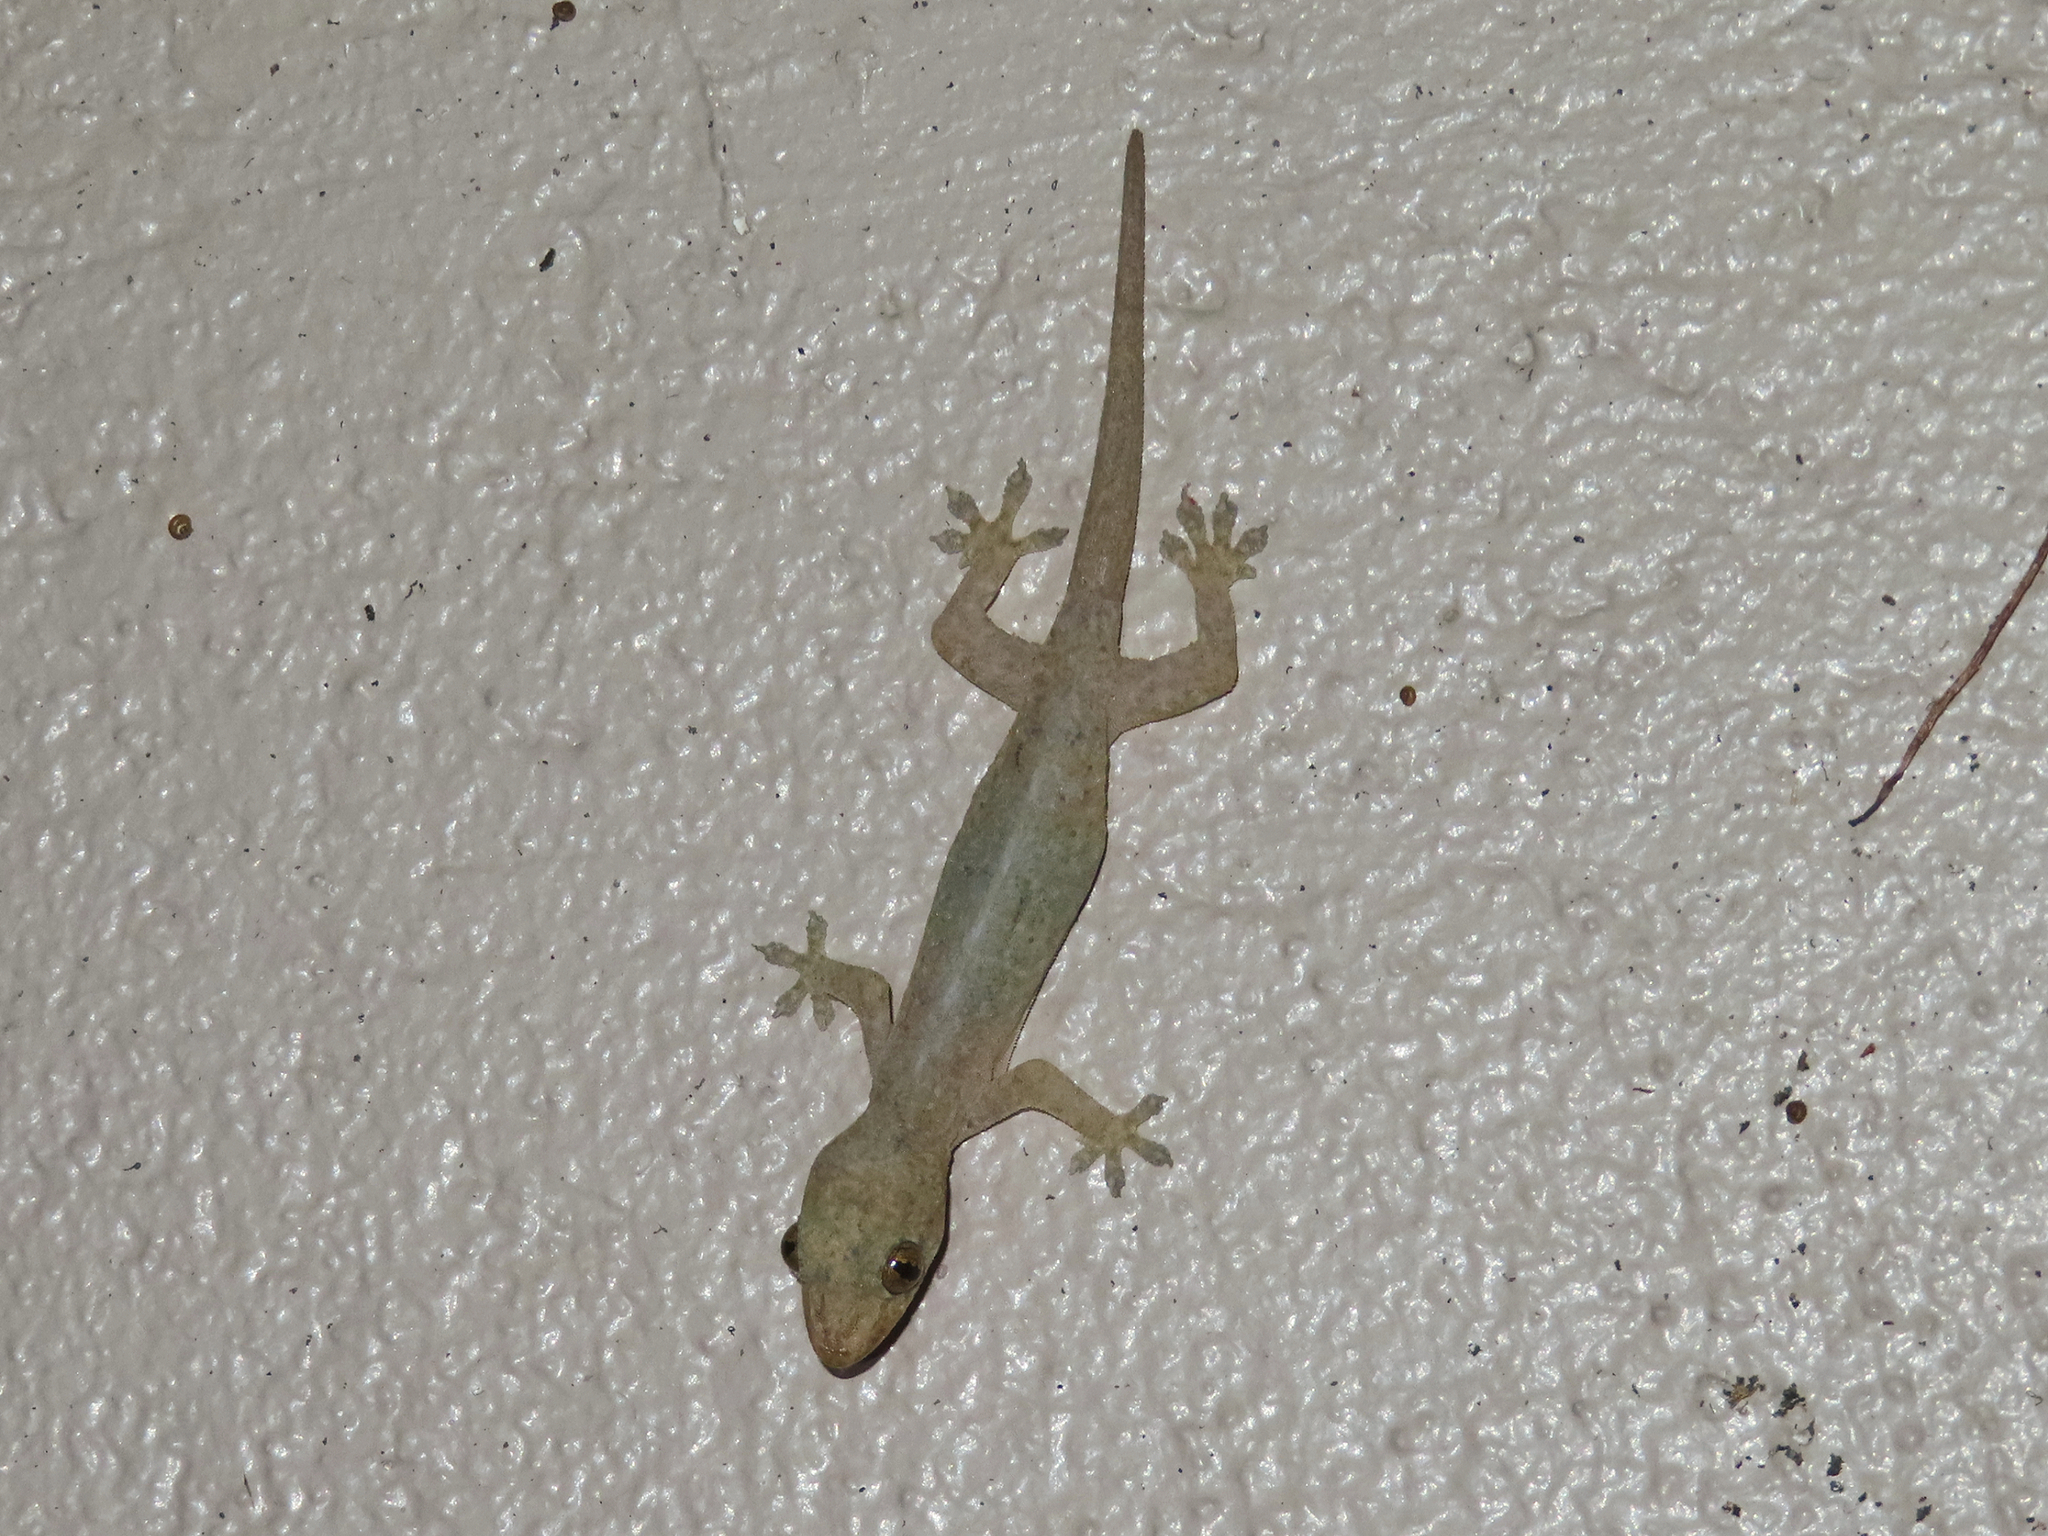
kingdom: Animalia
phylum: Chordata
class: Squamata
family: Gekkonidae
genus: Hemidactylus
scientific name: Hemidactylus frenatus
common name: Common house gecko
